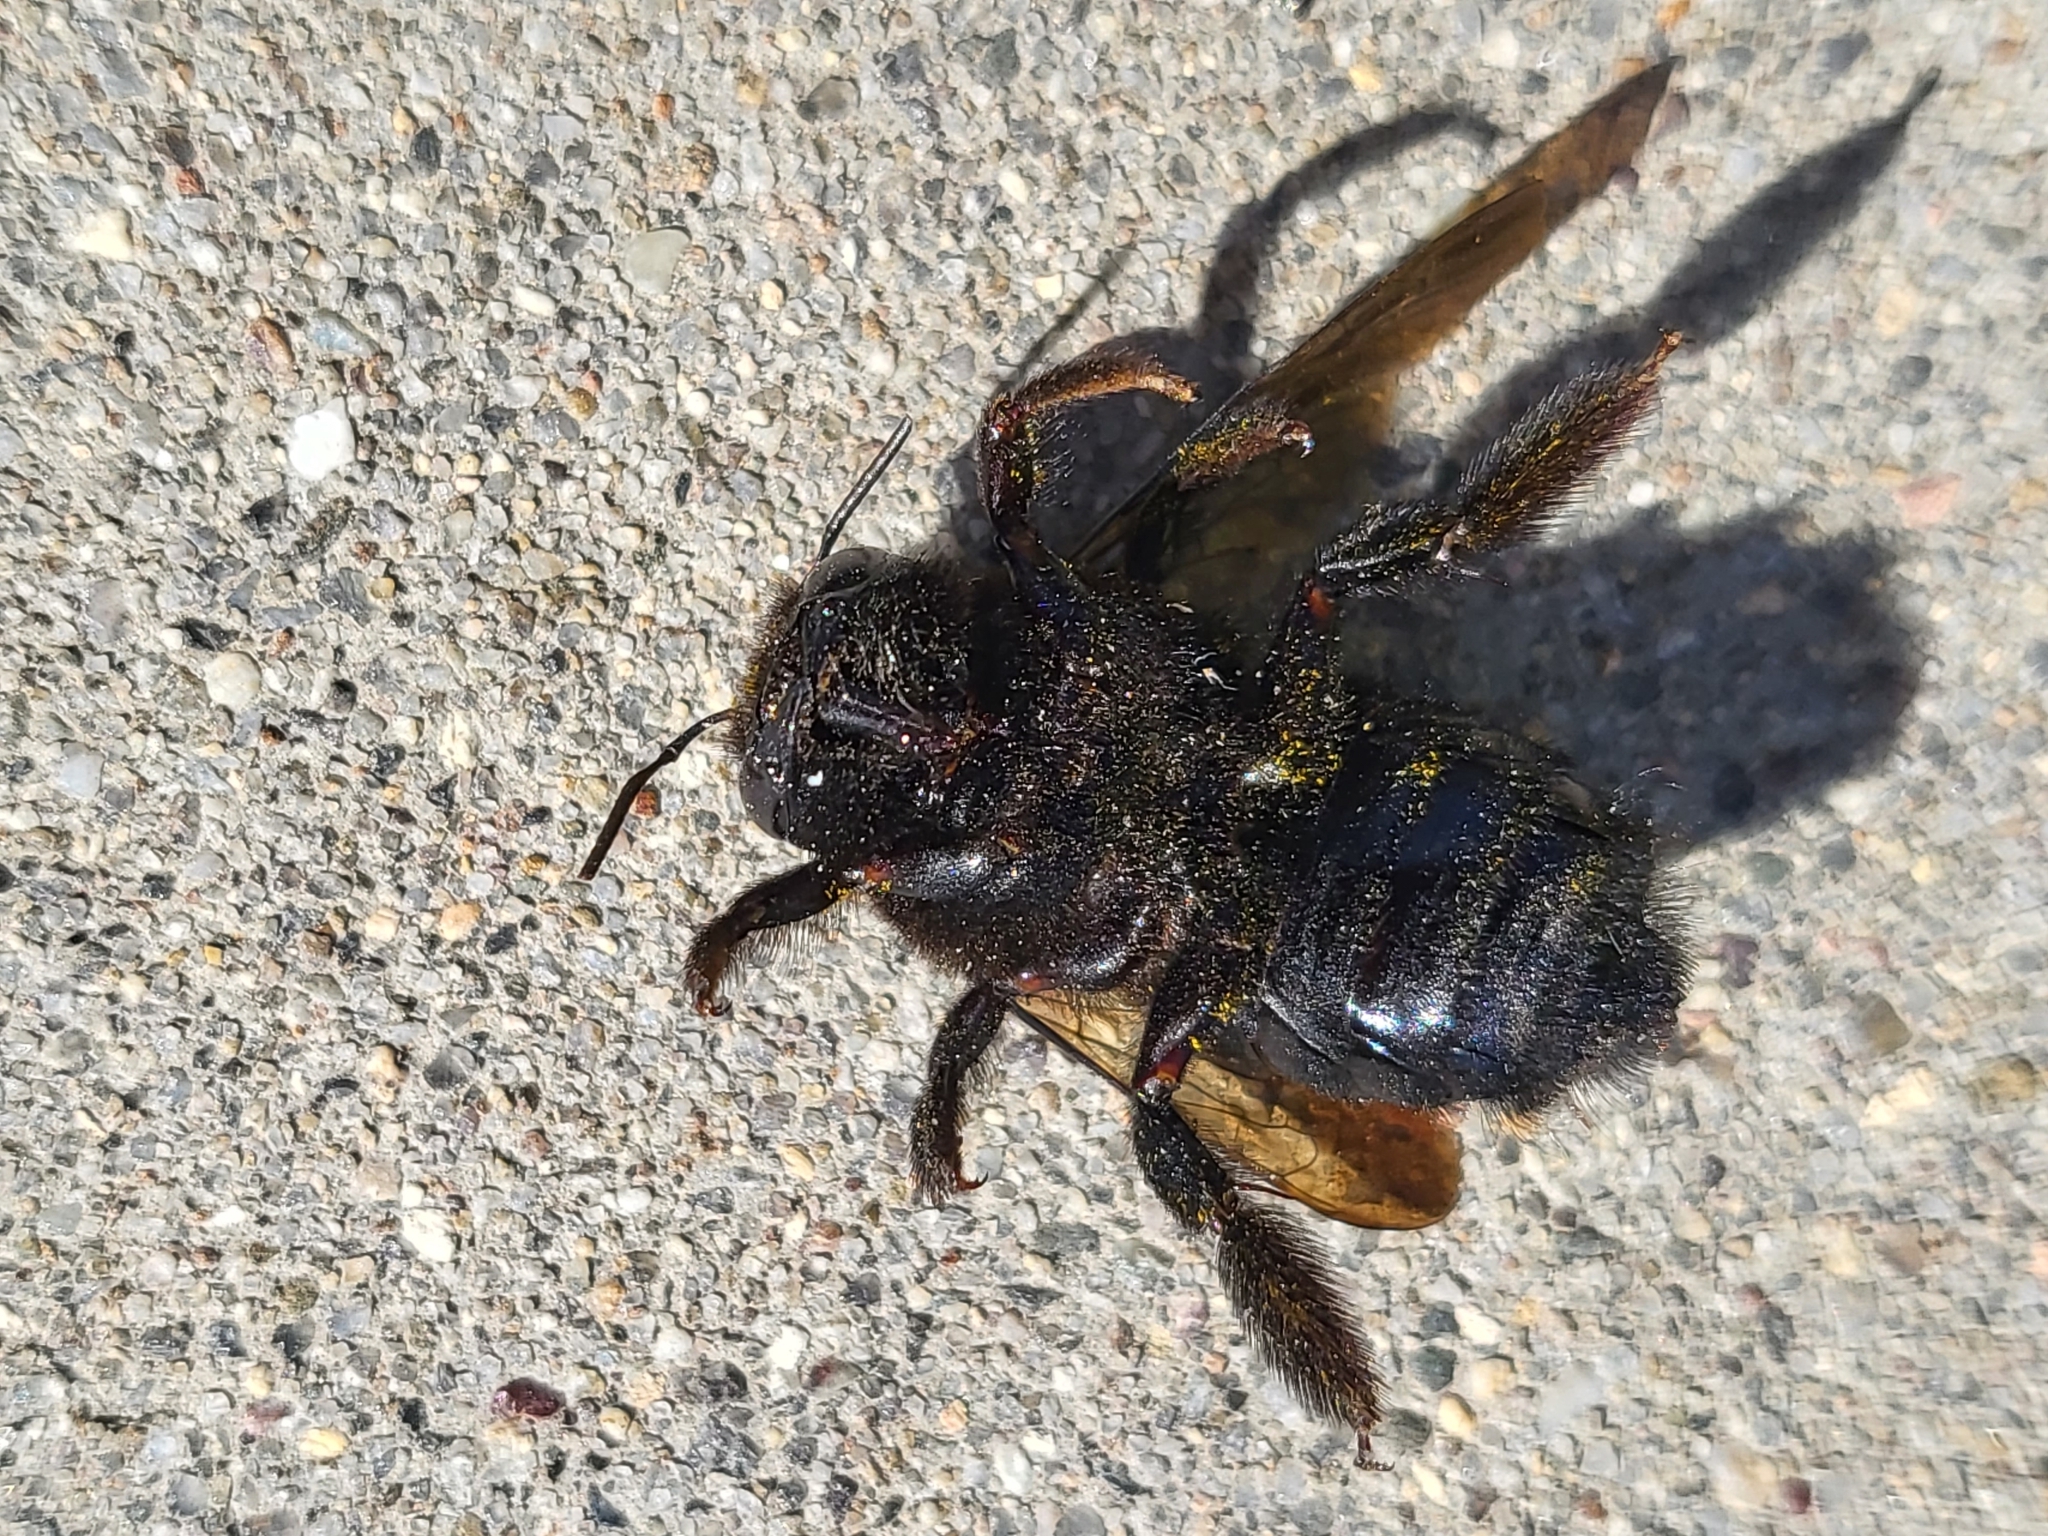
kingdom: Animalia
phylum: Arthropoda
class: Insecta
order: Hymenoptera
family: Apidae
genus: Xylocopa
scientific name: Xylocopa sonorina
